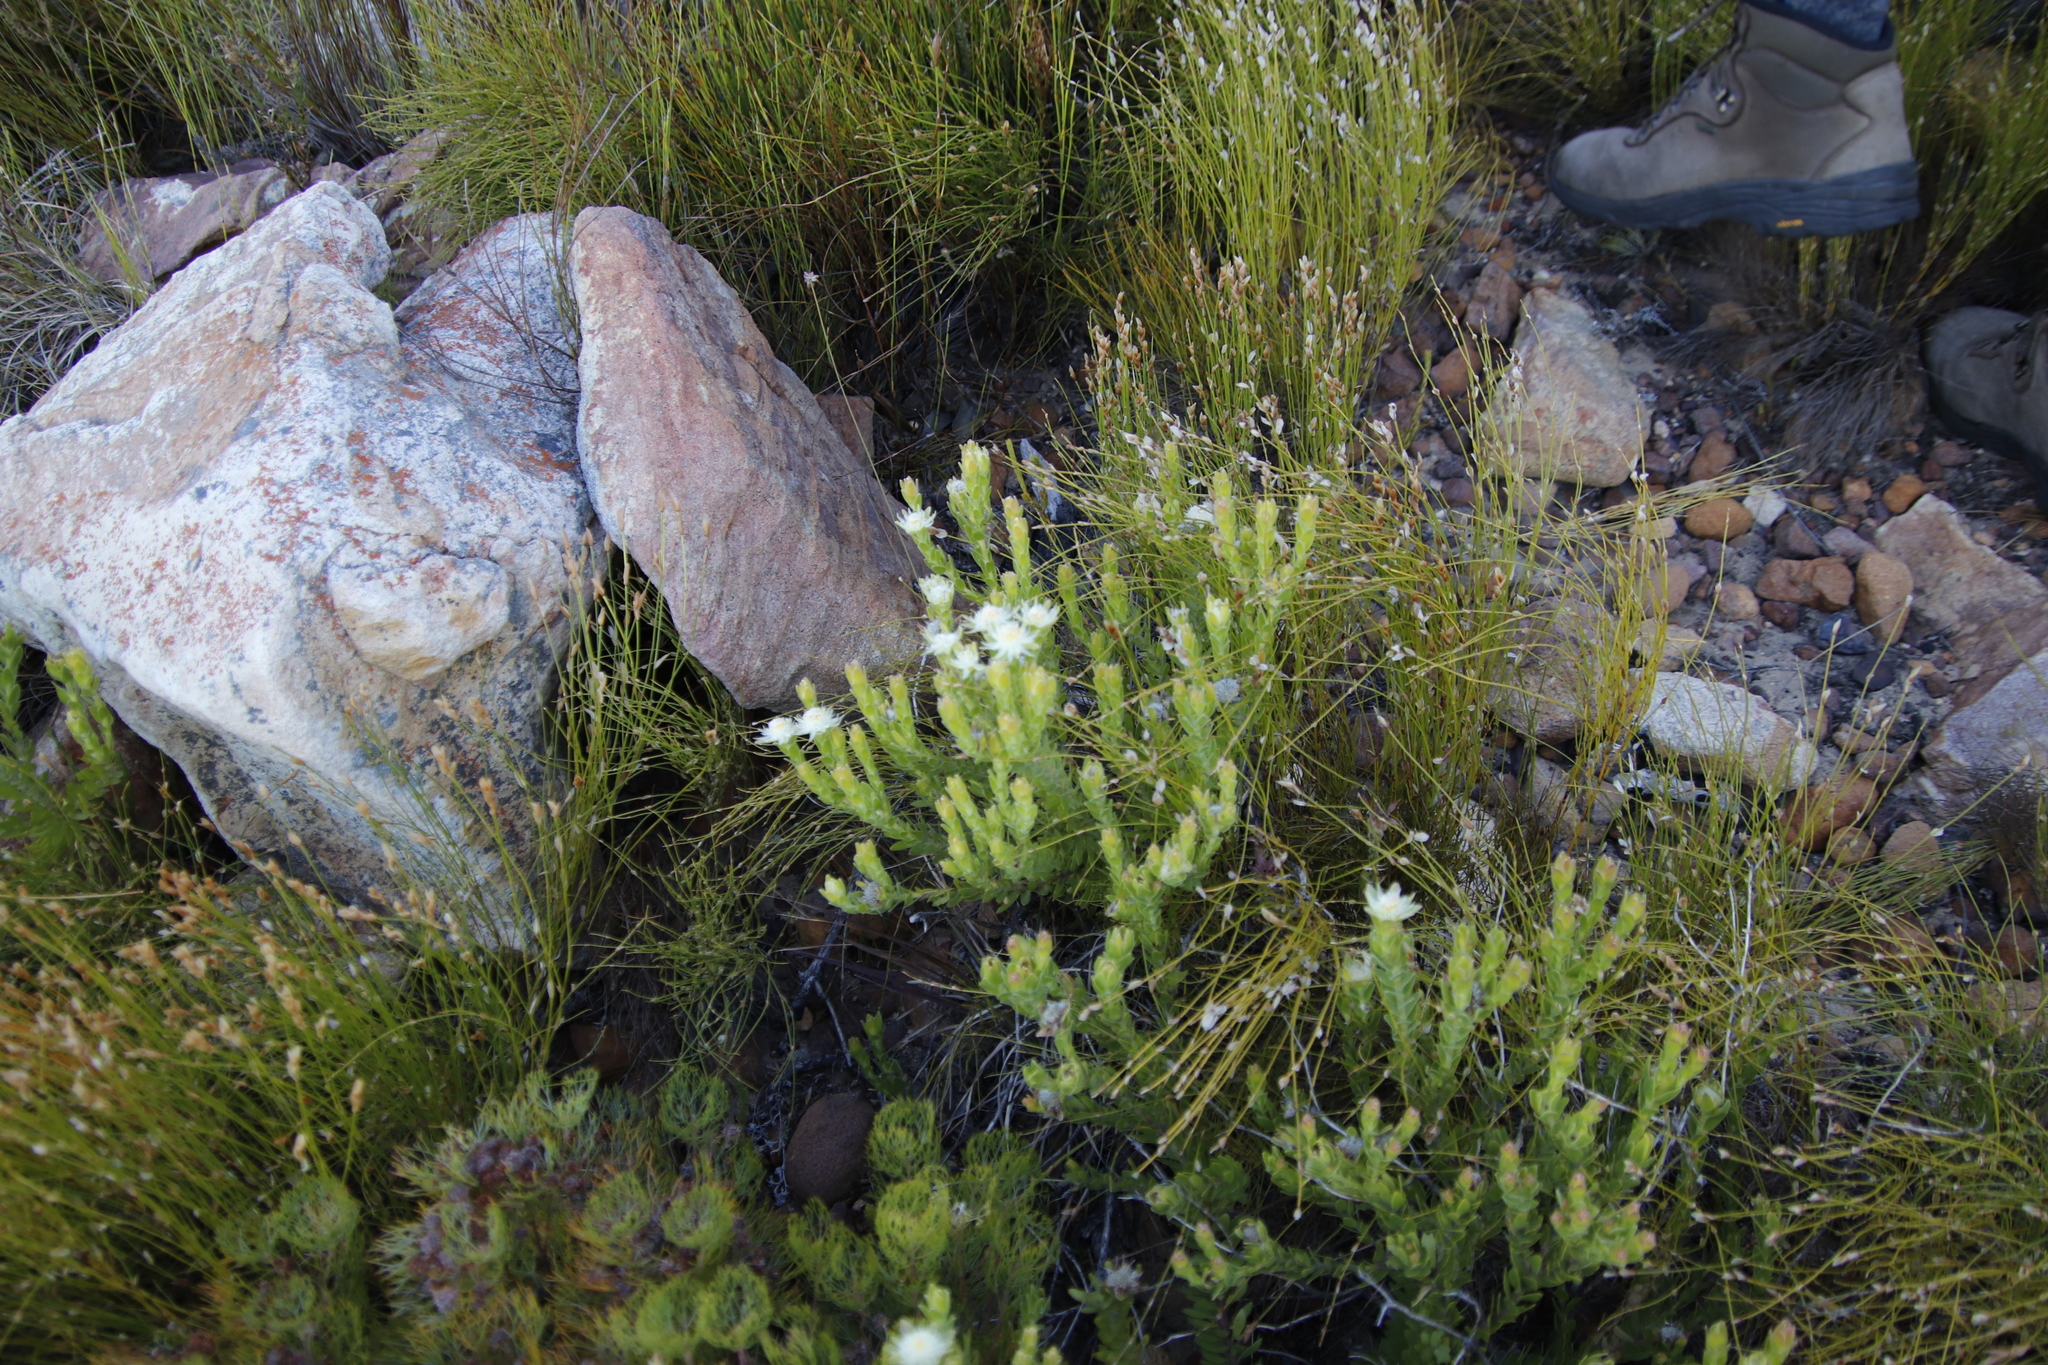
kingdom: Plantae
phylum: Tracheophyta
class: Magnoliopsida
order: Proteales
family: Proteaceae
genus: Diastella
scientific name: Diastella thymelaeoides
